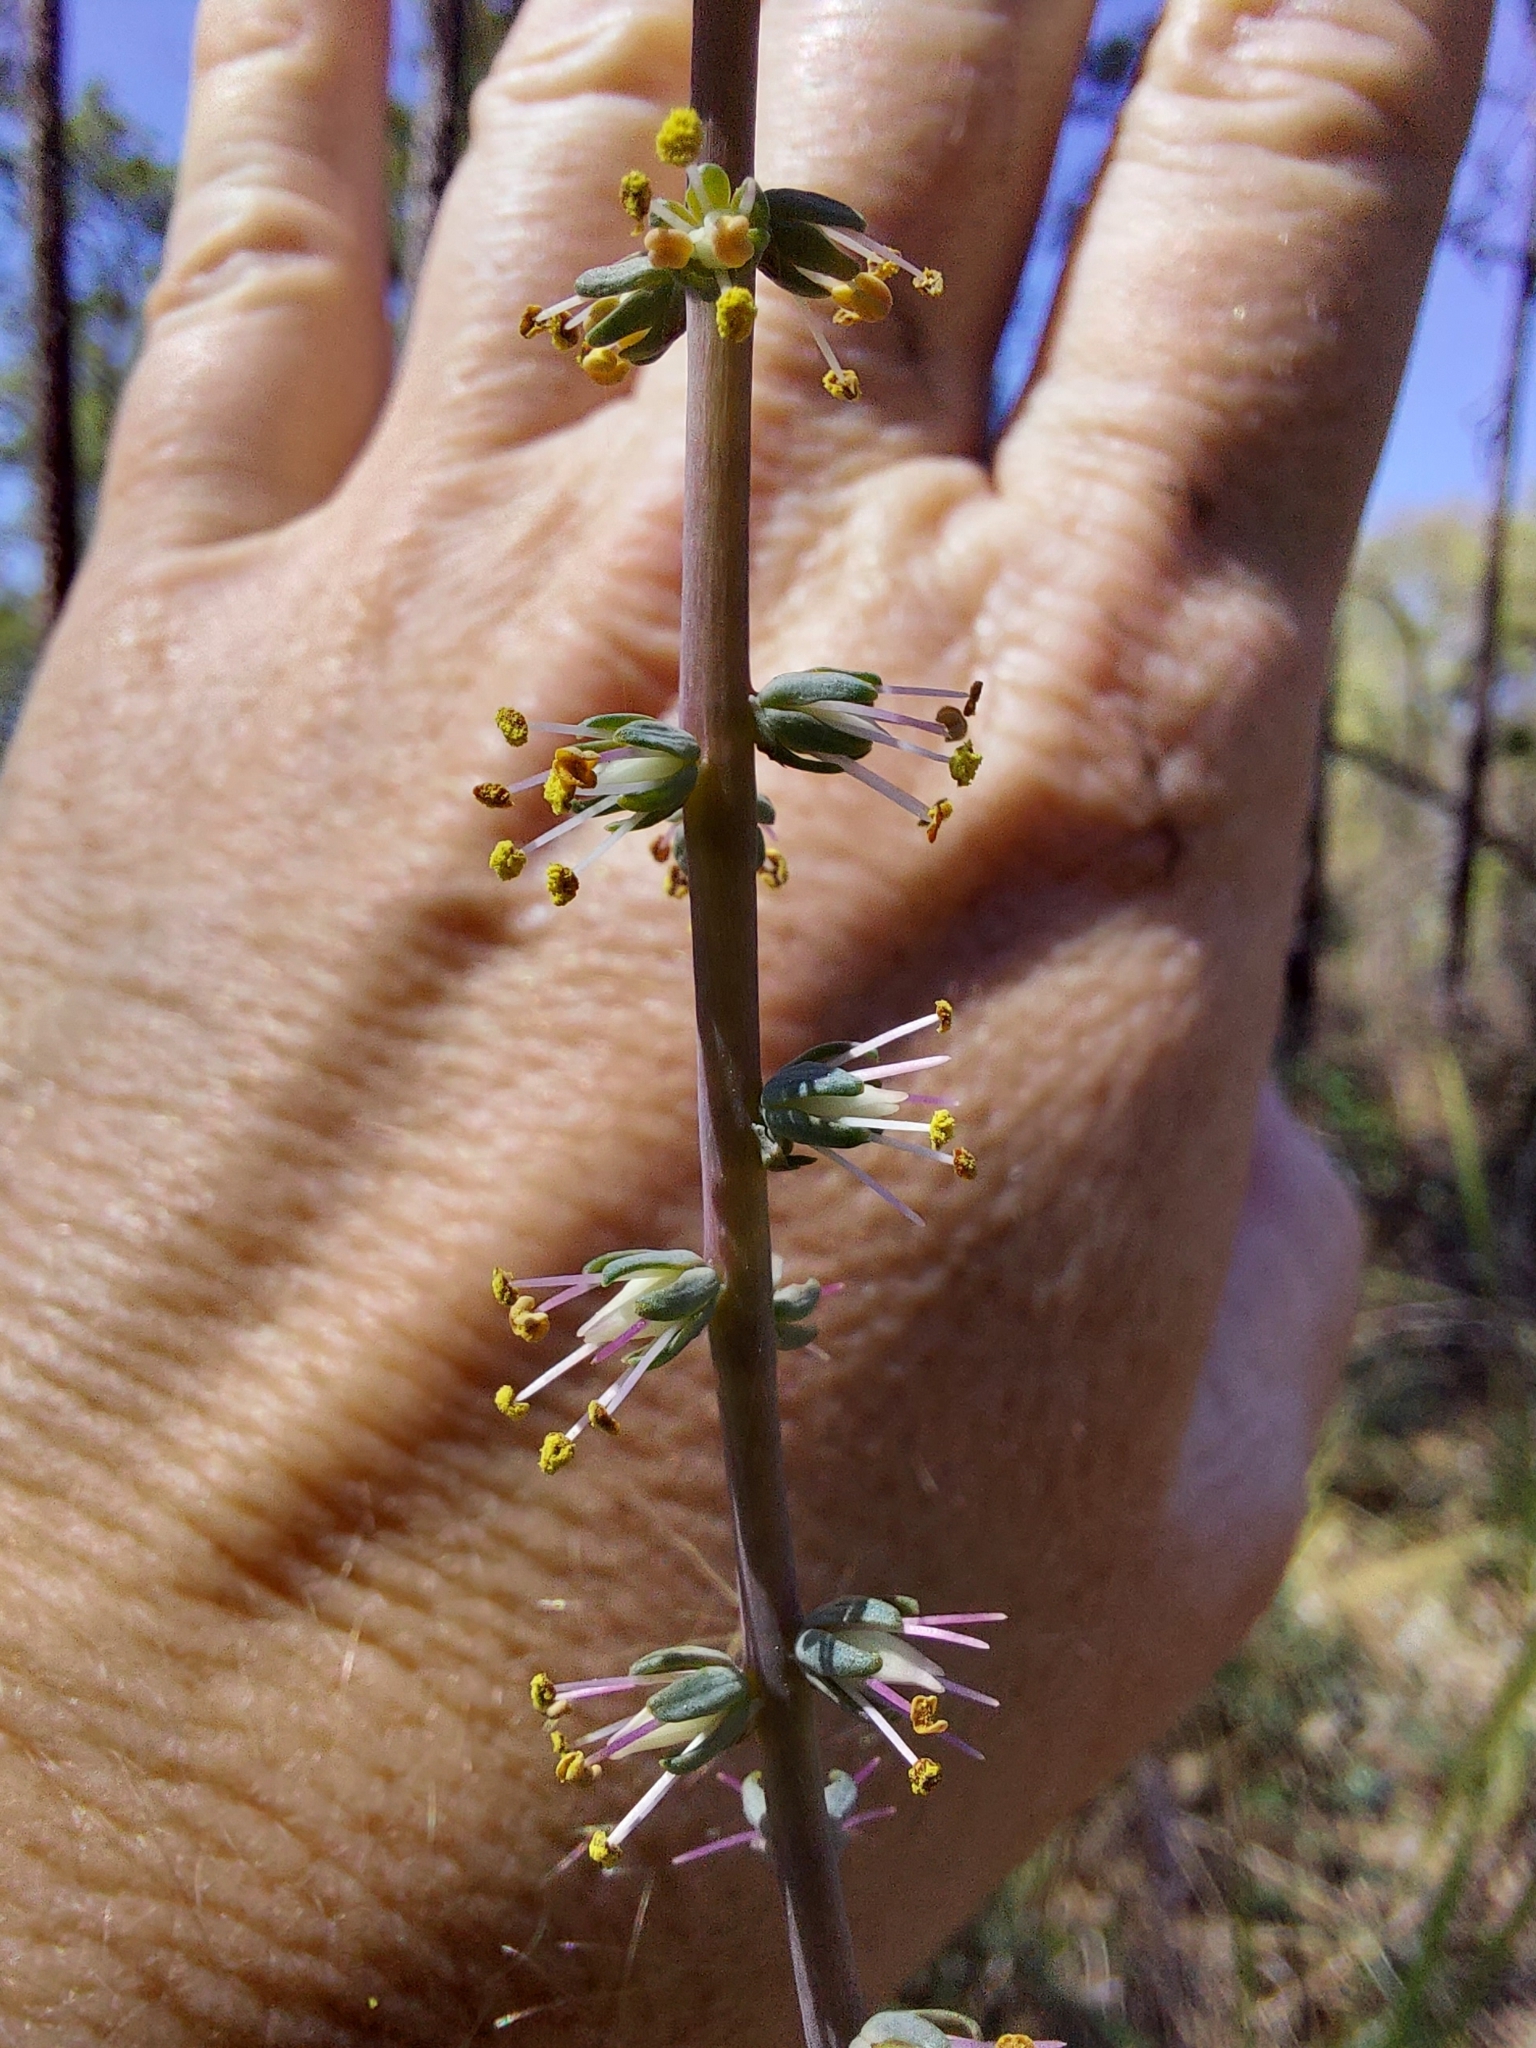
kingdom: Plantae
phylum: Tracheophyta
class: Liliopsida
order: Liliales
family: Melanthiaceae
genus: Schoenocaulon
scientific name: Schoenocaulon dubium
